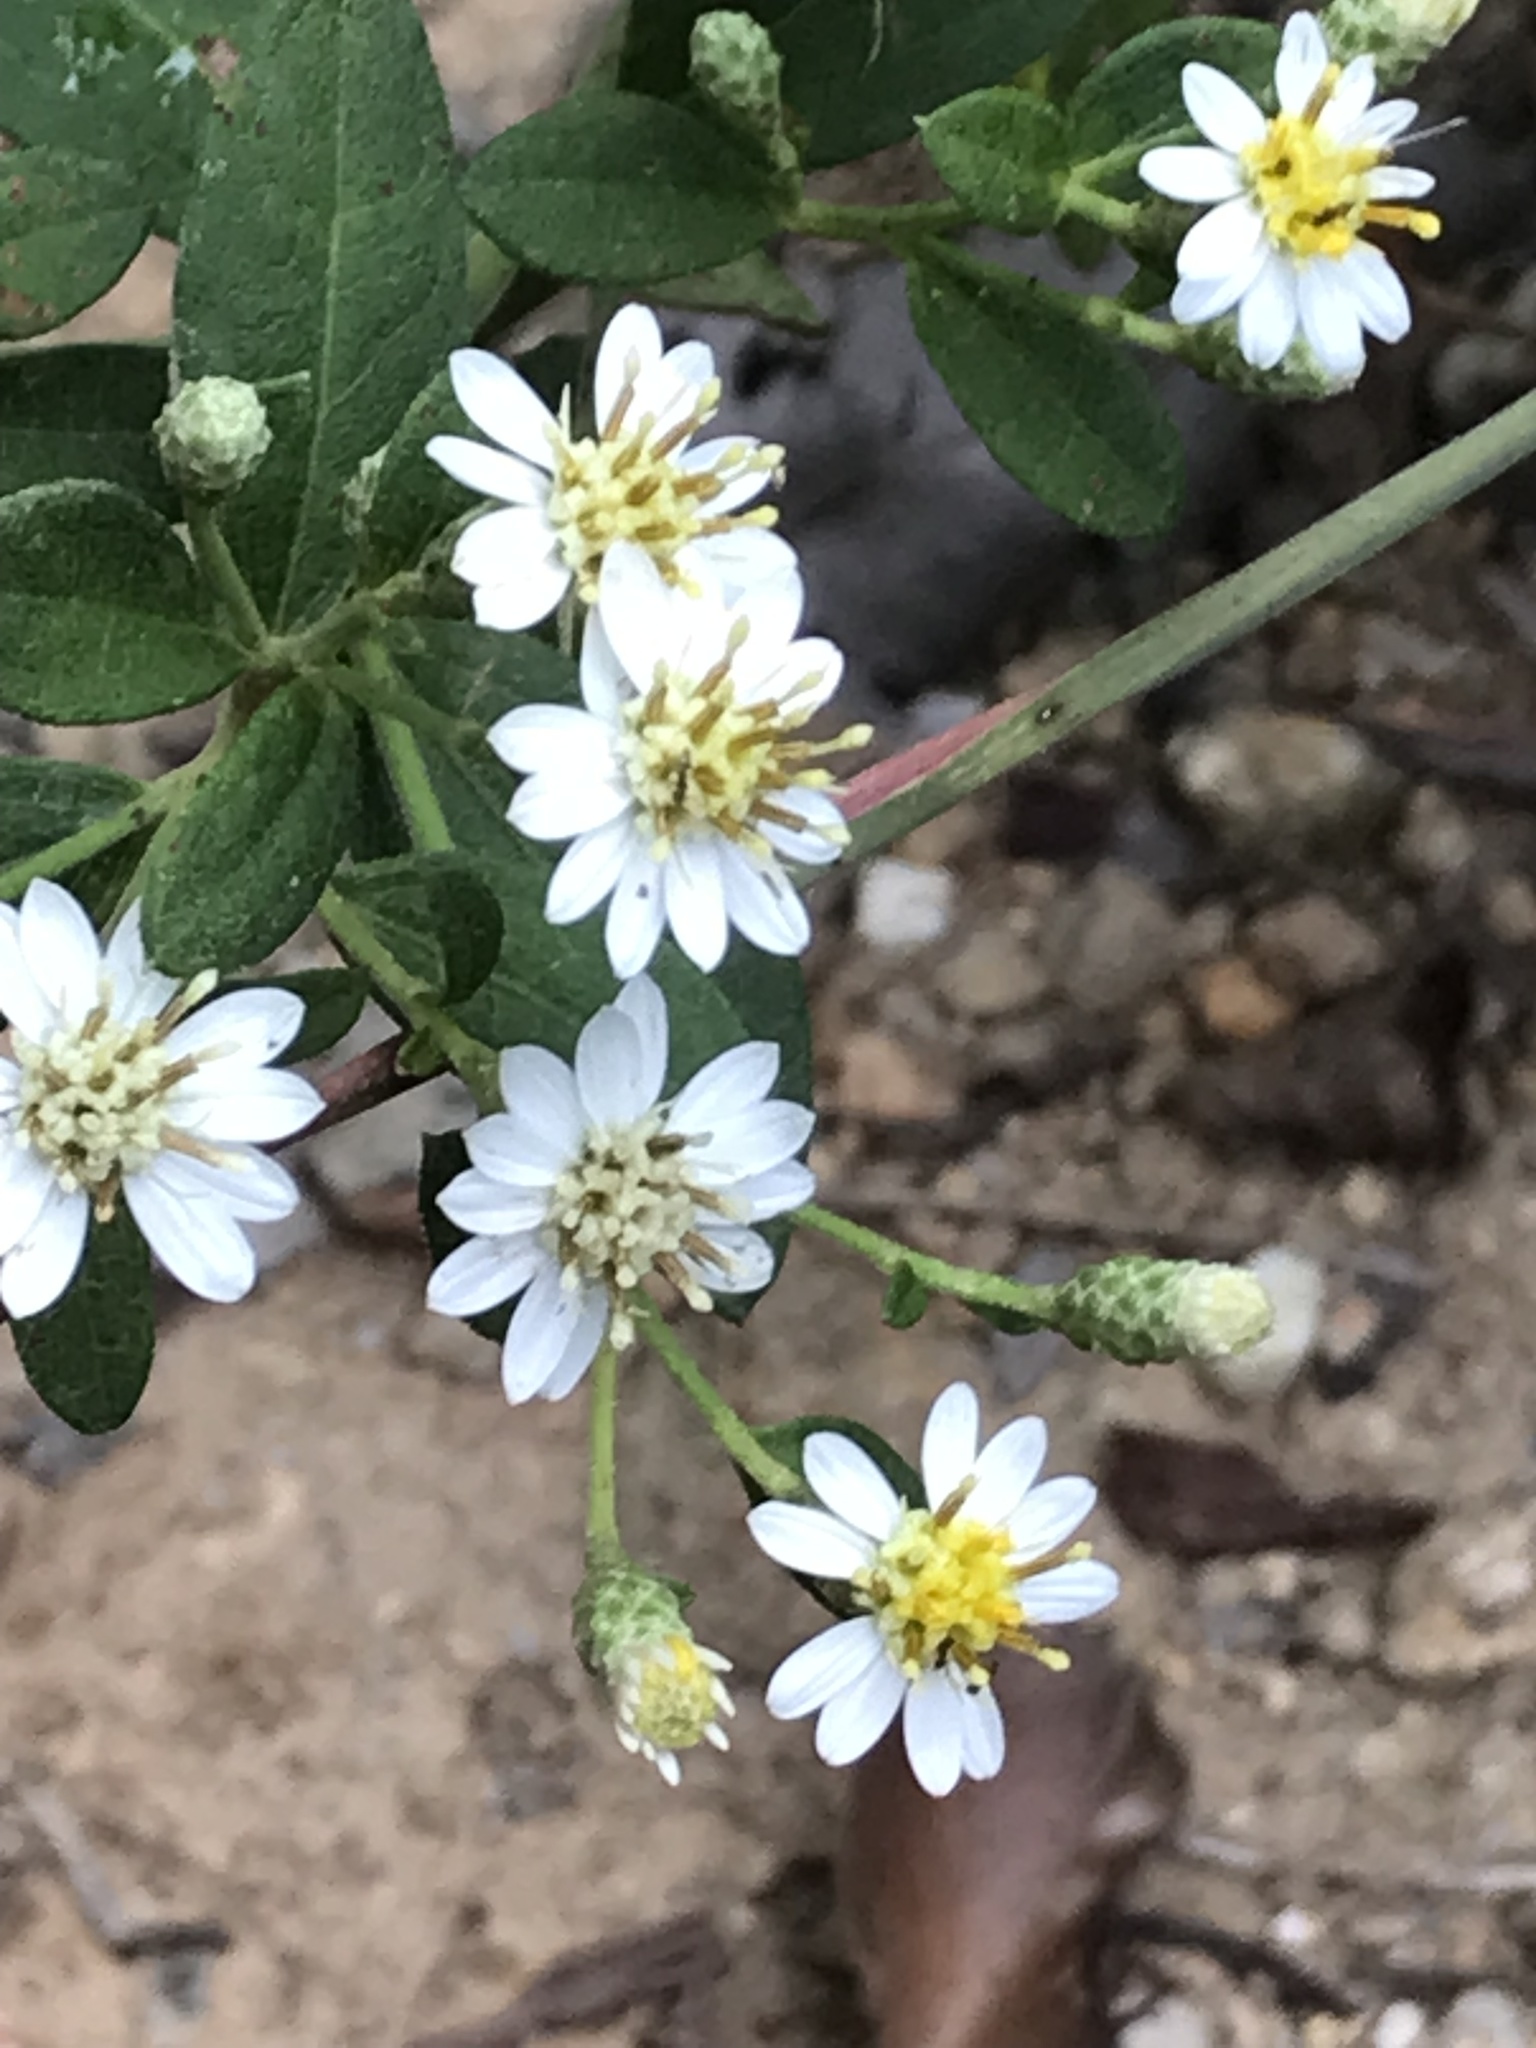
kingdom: Plantae
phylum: Tracheophyta
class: Magnoliopsida
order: Asterales
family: Asteraceae
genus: Aster
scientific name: Aster baccharoides
